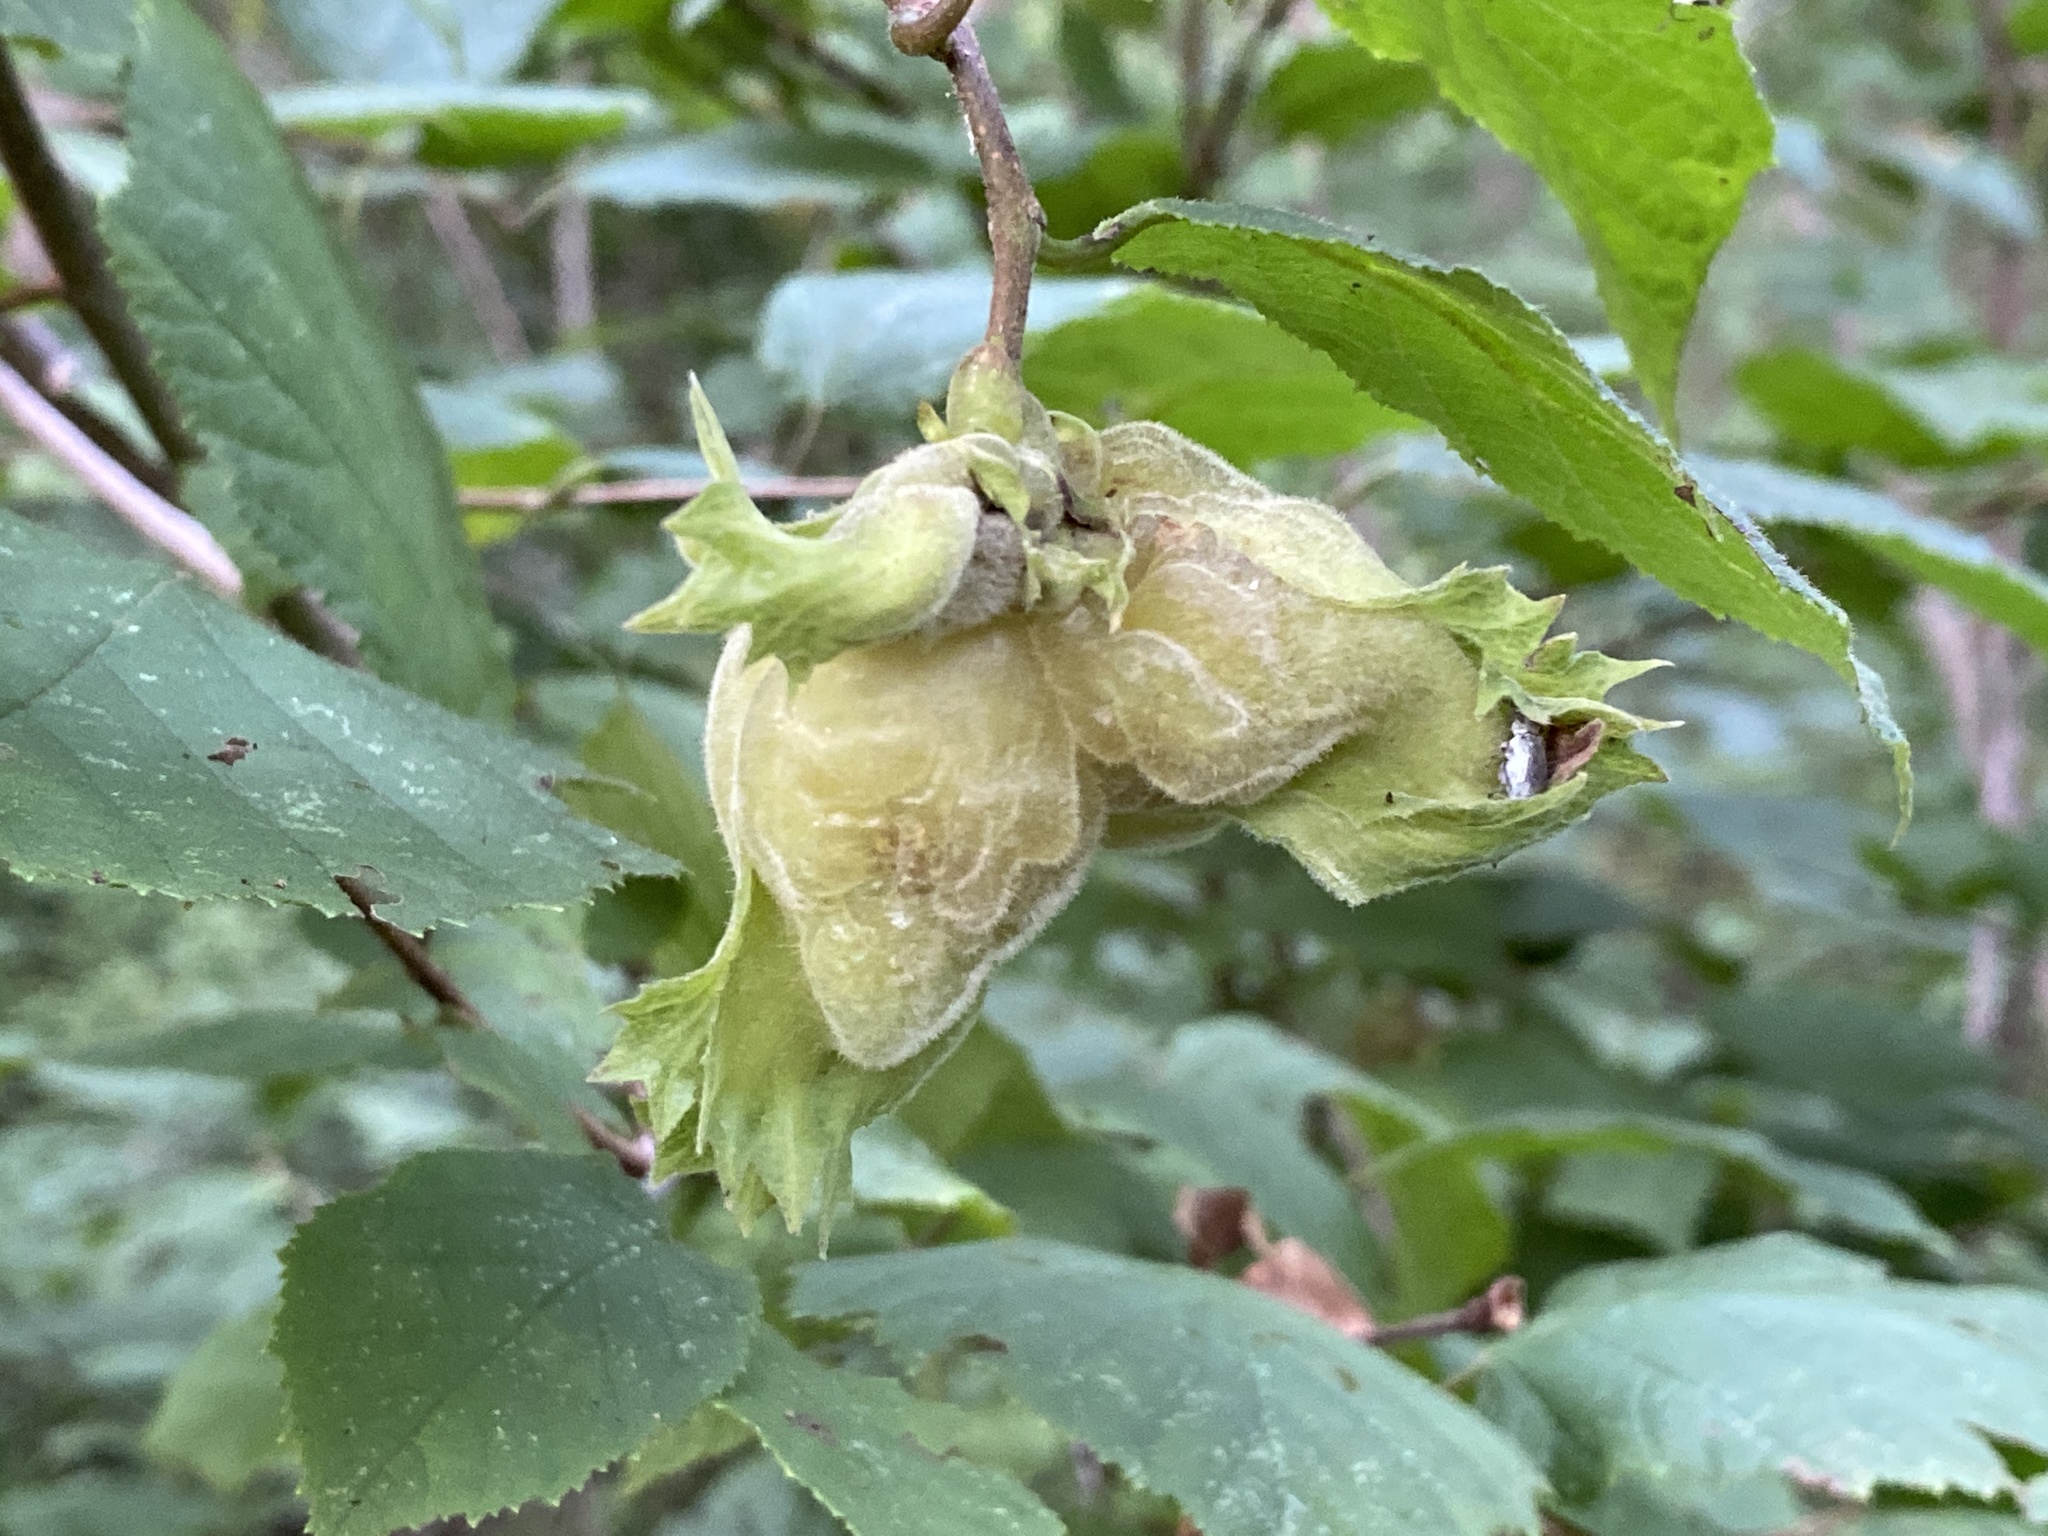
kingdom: Plantae
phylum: Tracheophyta
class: Magnoliopsida
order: Fagales
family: Betulaceae
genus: Corylus
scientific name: Corylus americana
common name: American hazel
